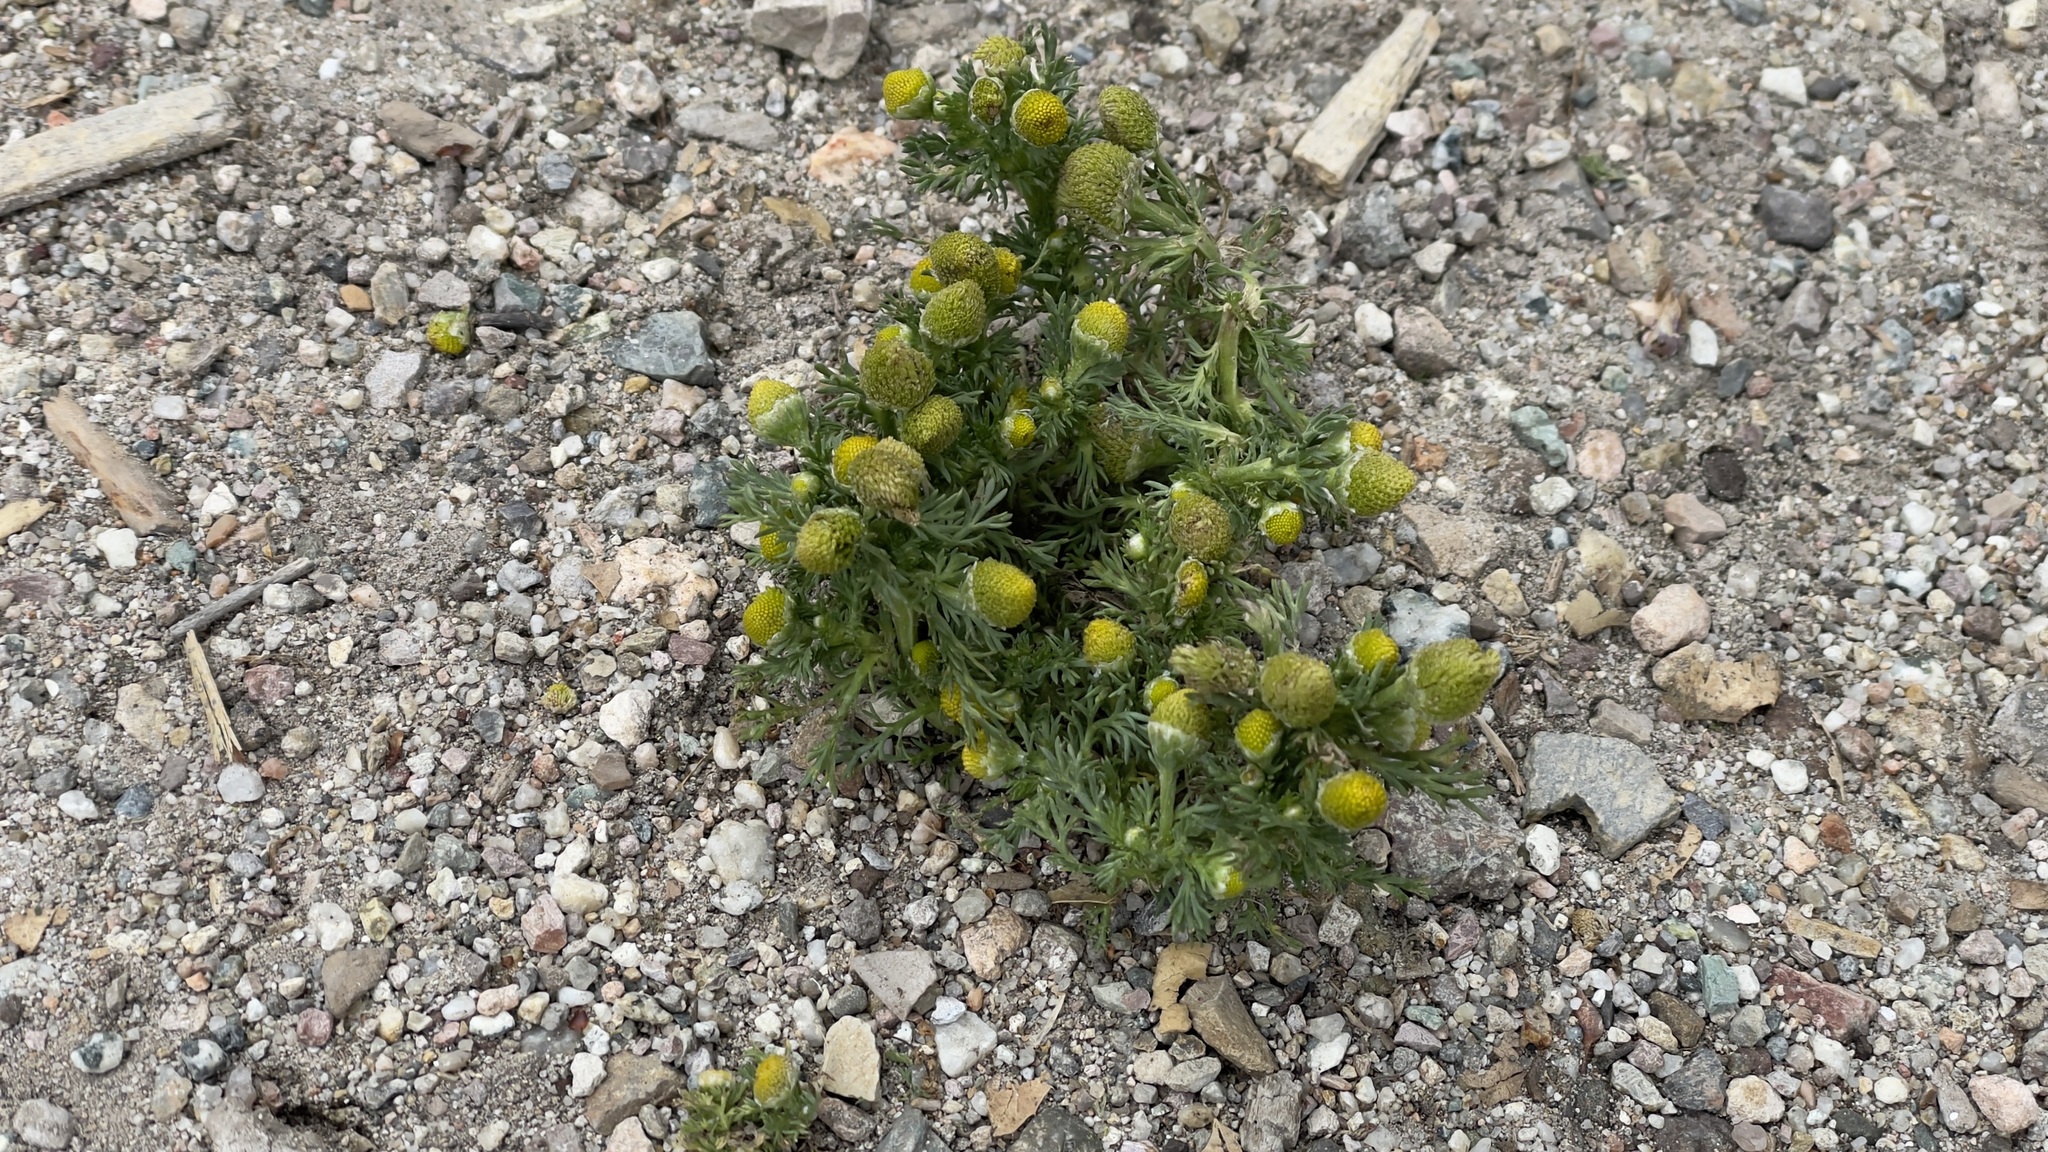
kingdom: Plantae
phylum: Tracheophyta
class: Magnoliopsida
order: Asterales
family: Asteraceae
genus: Matricaria
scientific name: Matricaria discoidea
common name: Disc mayweed
